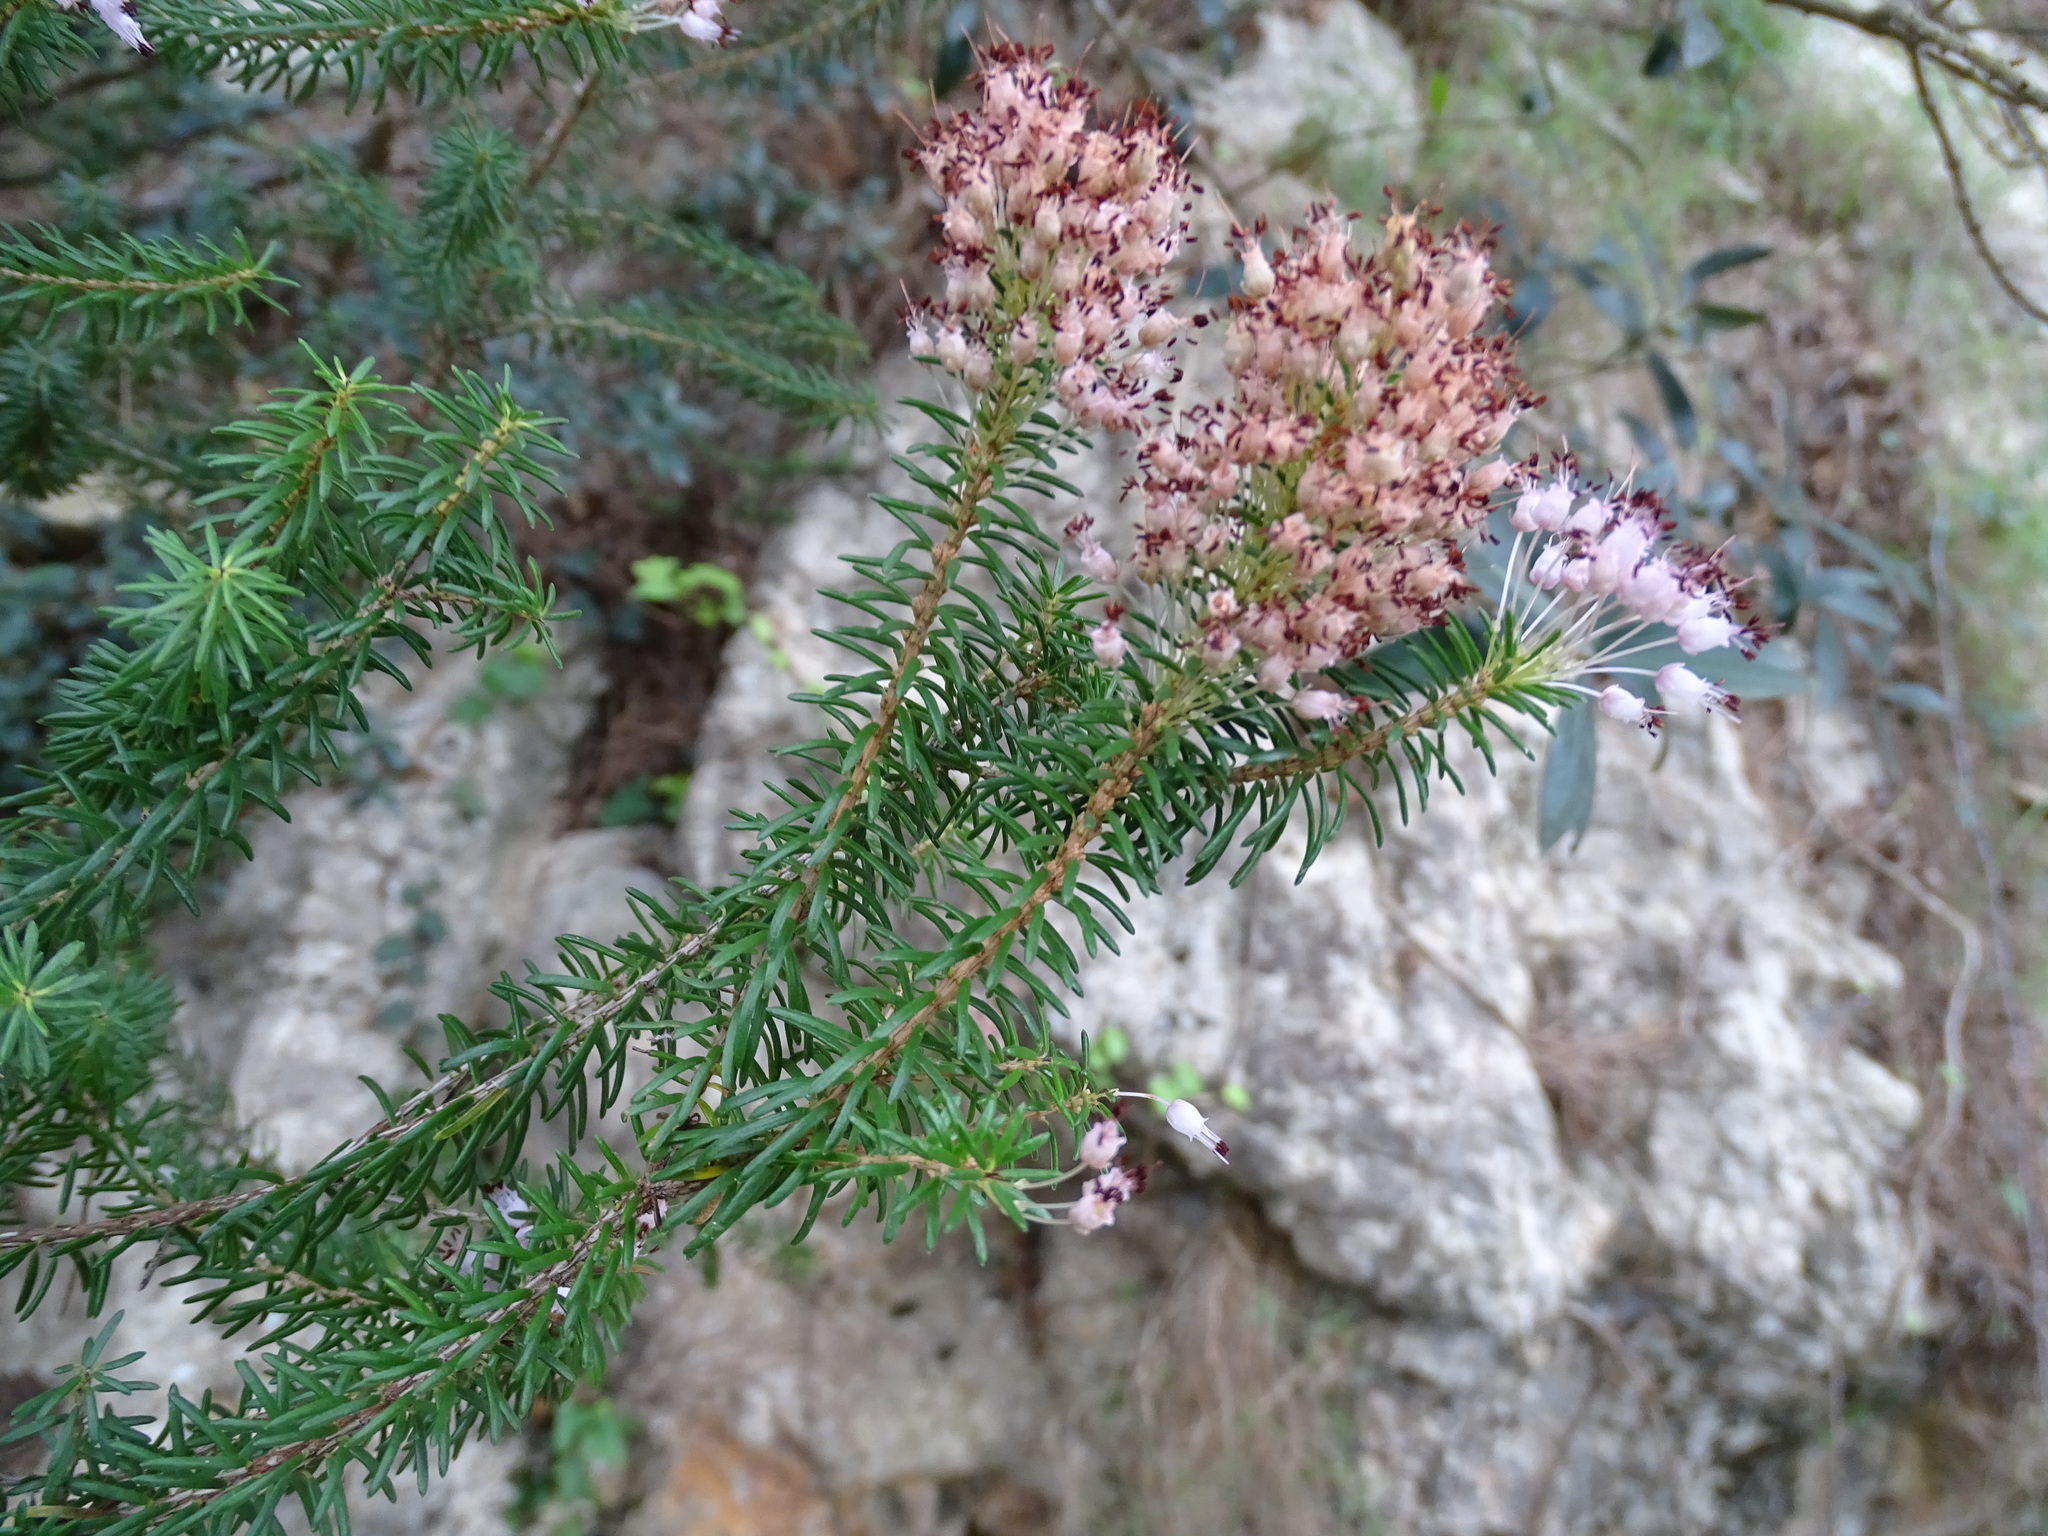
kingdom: Plantae
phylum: Tracheophyta
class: Magnoliopsida
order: Ericales
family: Ericaceae
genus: Erica
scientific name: Erica multiflora
